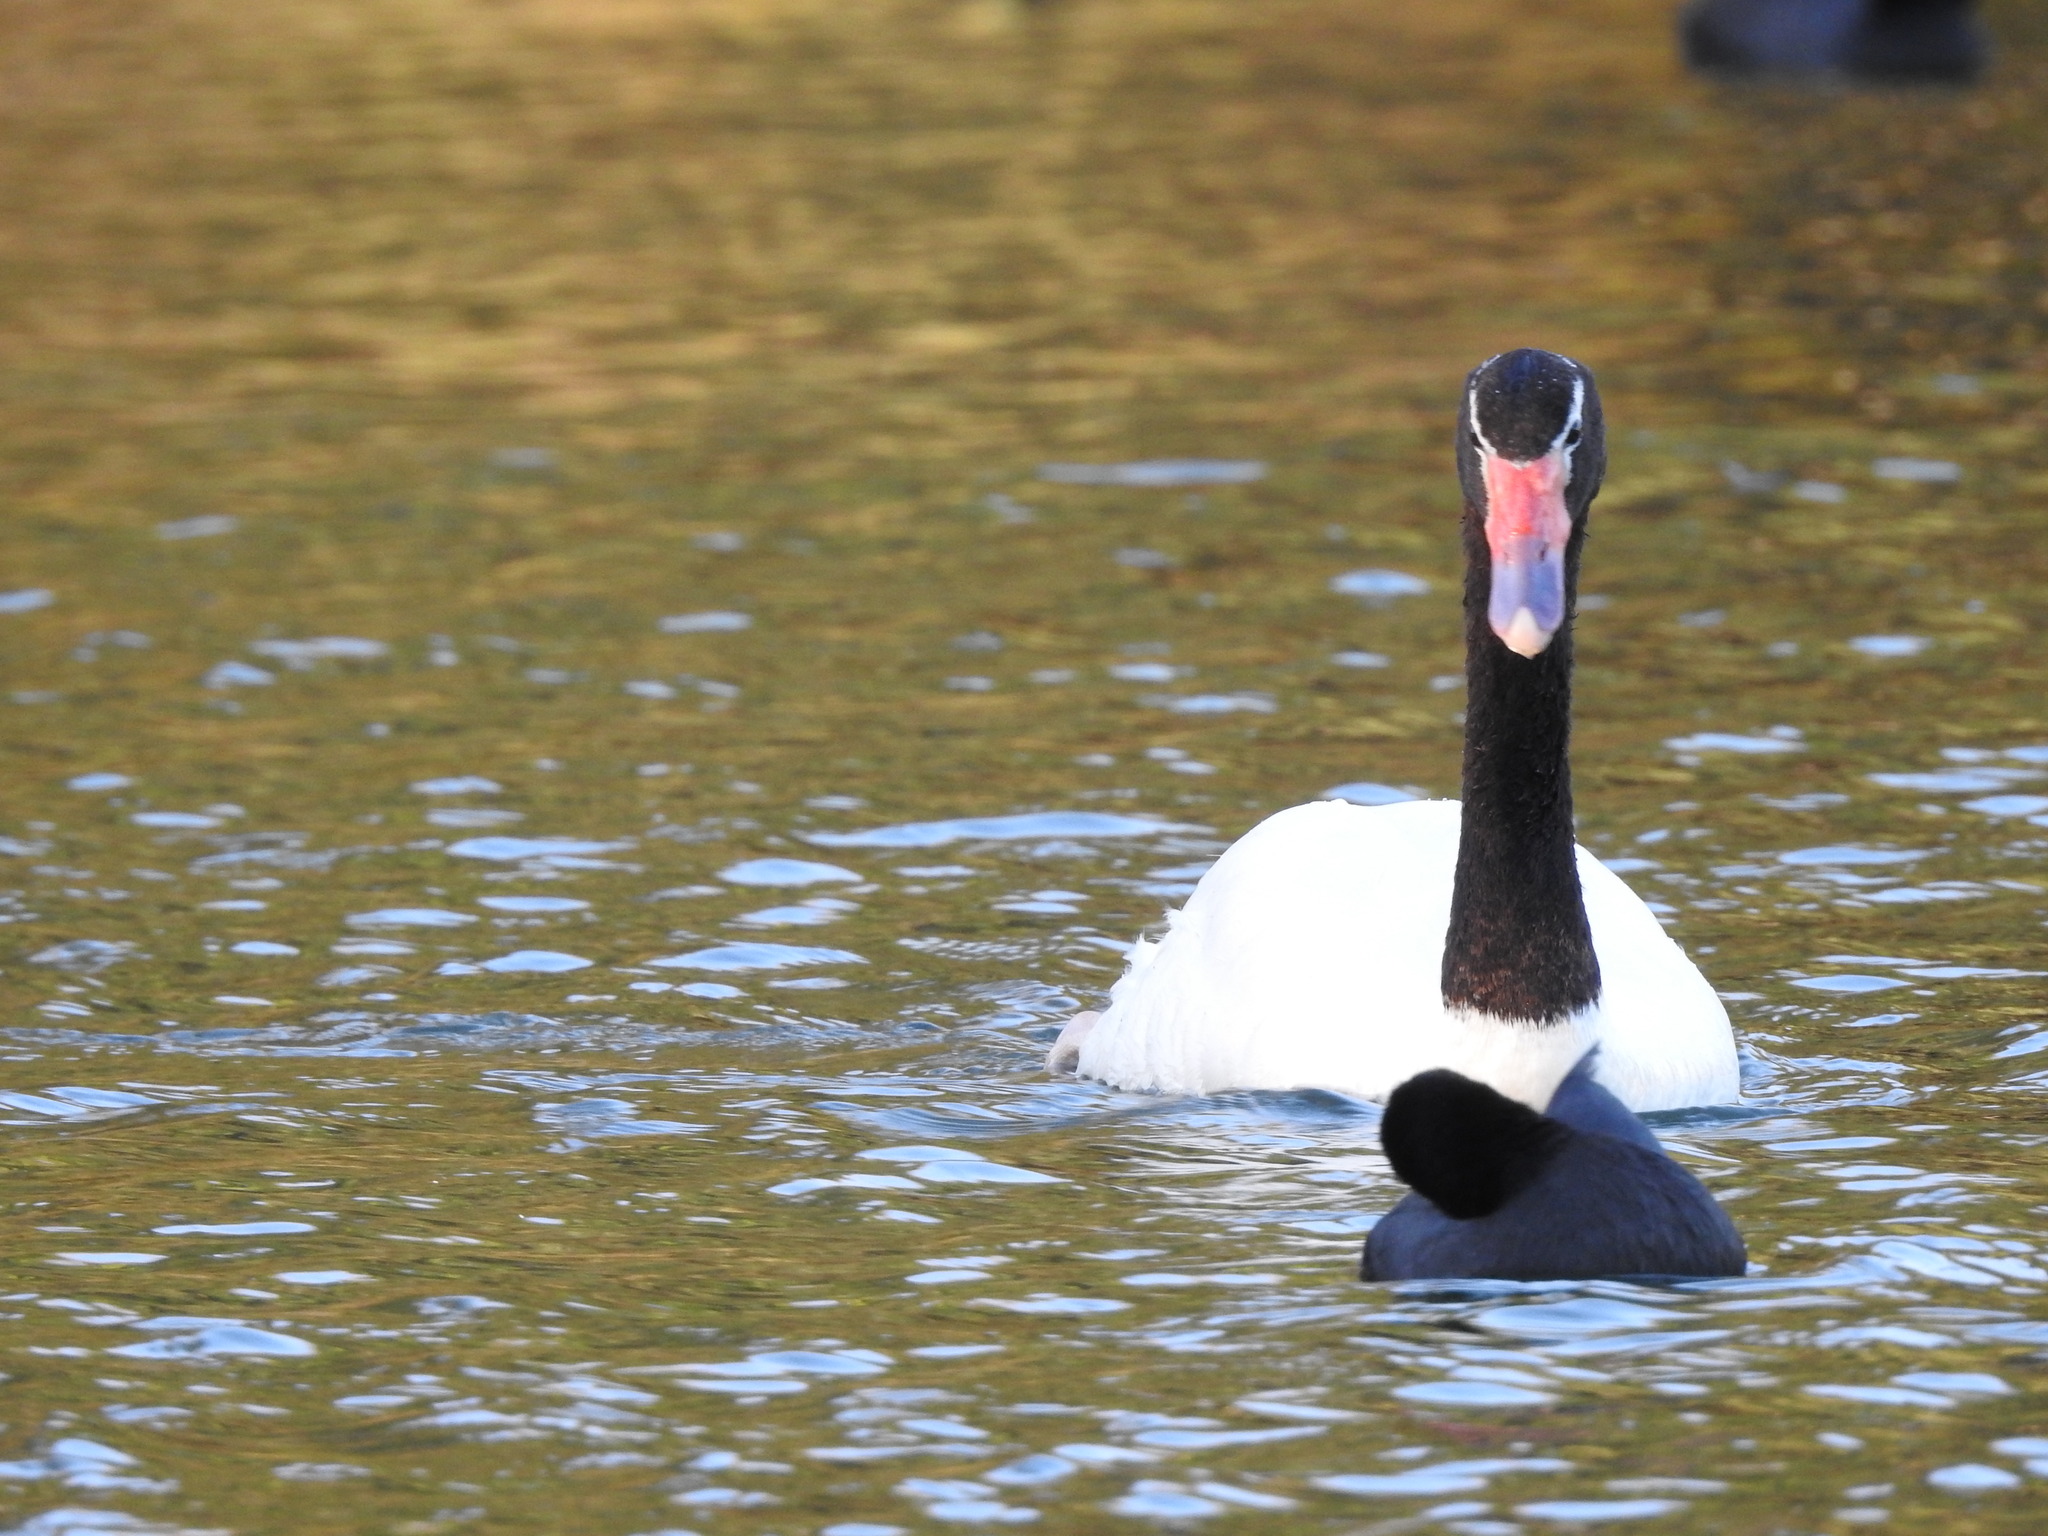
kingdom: Animalia
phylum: Chordata
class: Aves
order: Anseriformes
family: Anatidae
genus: Cygnus
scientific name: Cygnus melancoryphus
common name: Black-necked swan
